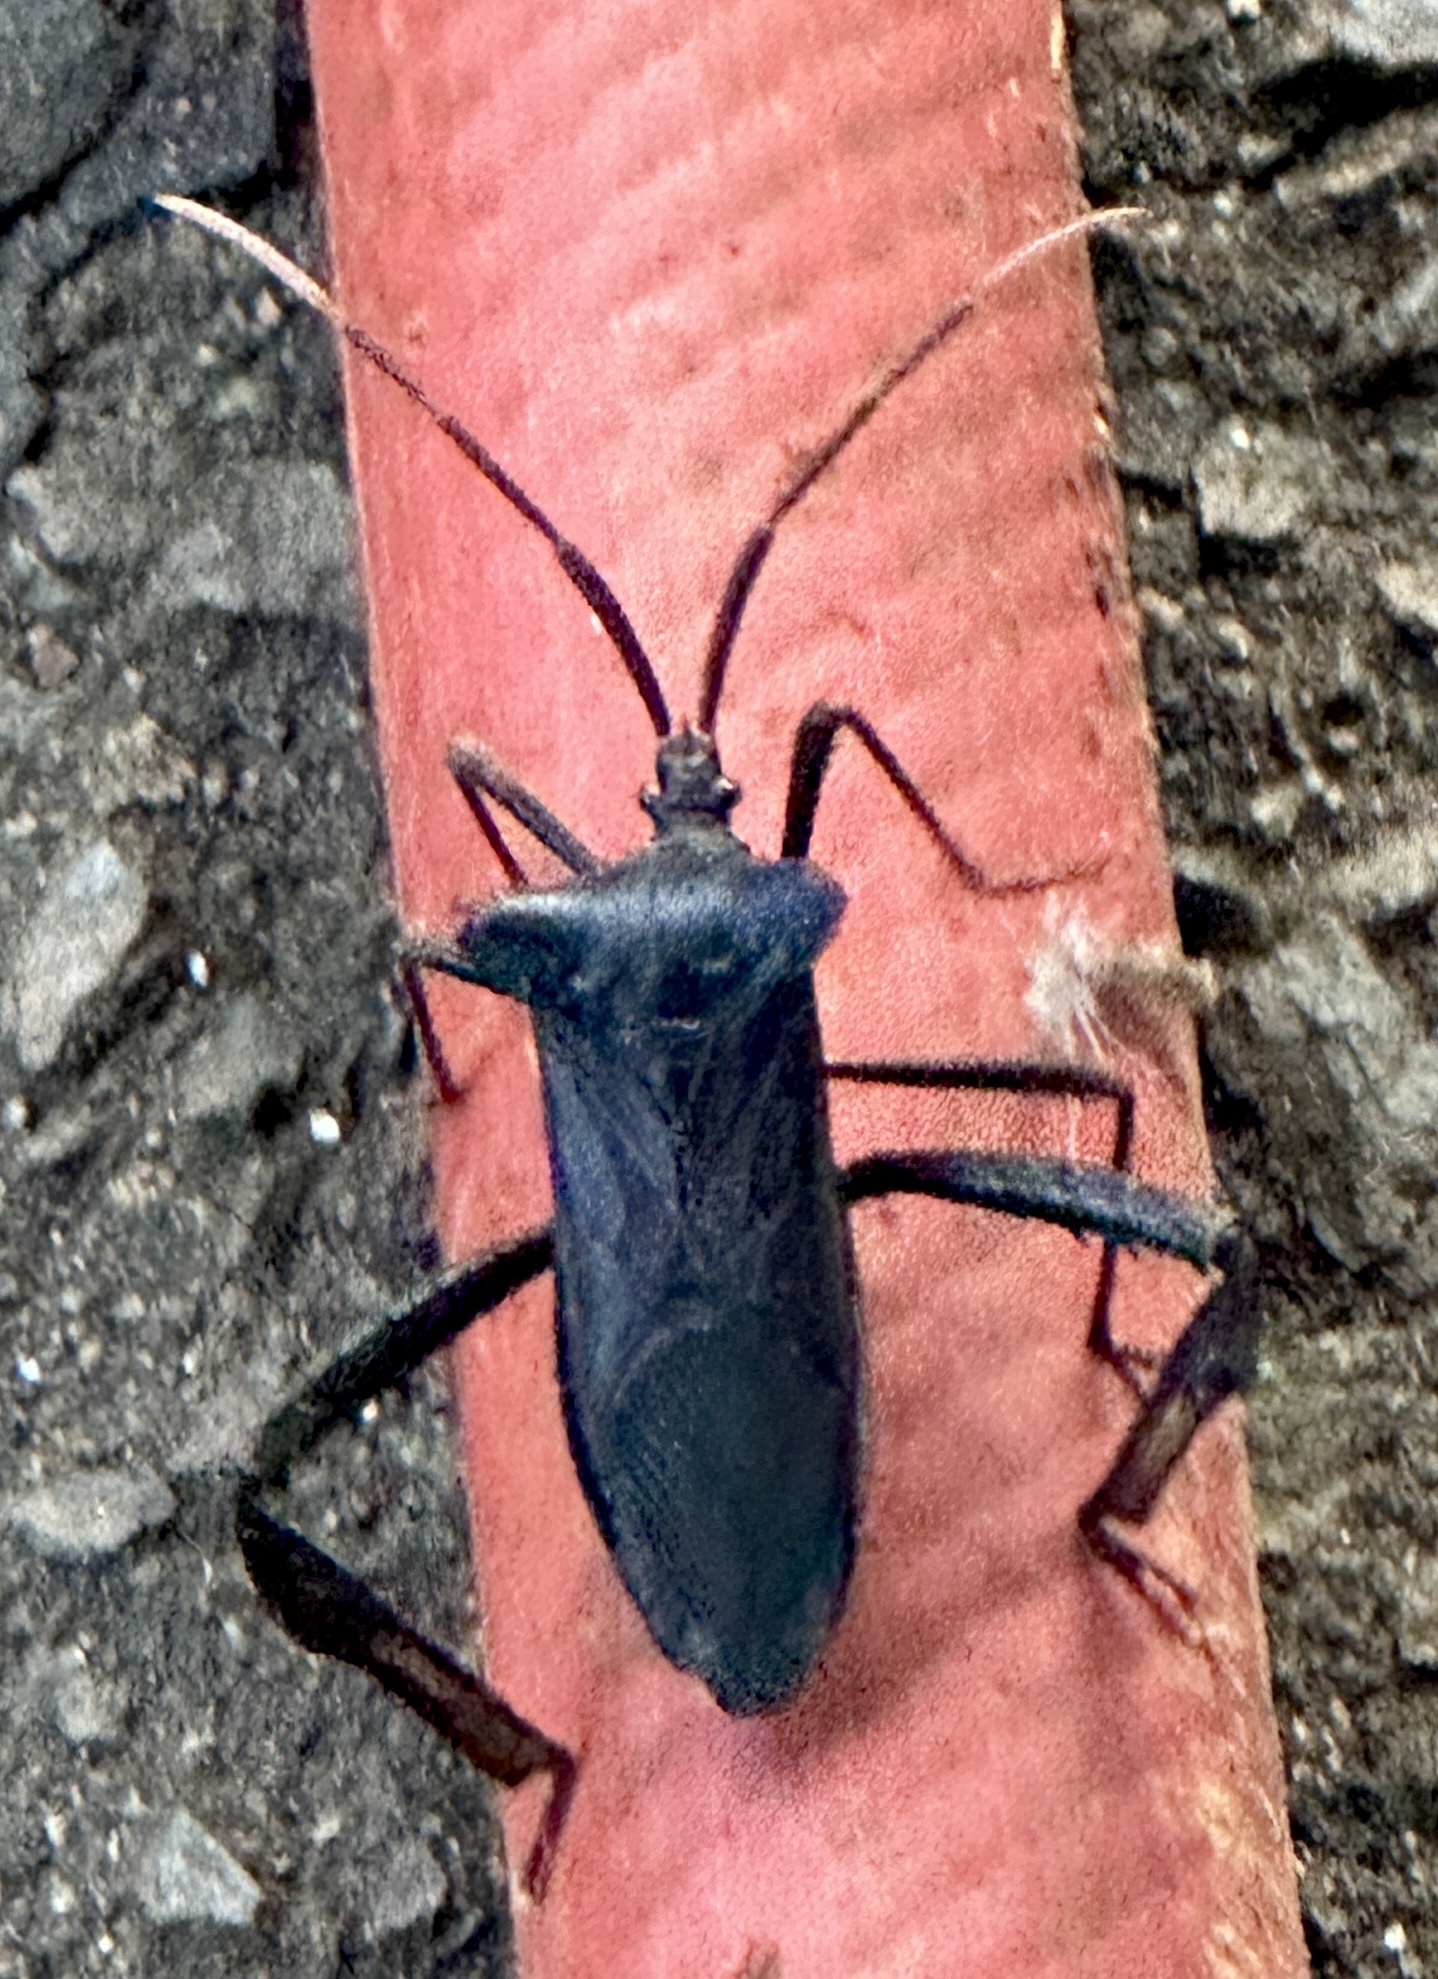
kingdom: Animalia
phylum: Arthropoda
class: Insecta
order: Hemiptera
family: Coreidae
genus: Acanthocephala
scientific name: Acanthocephala declivis
